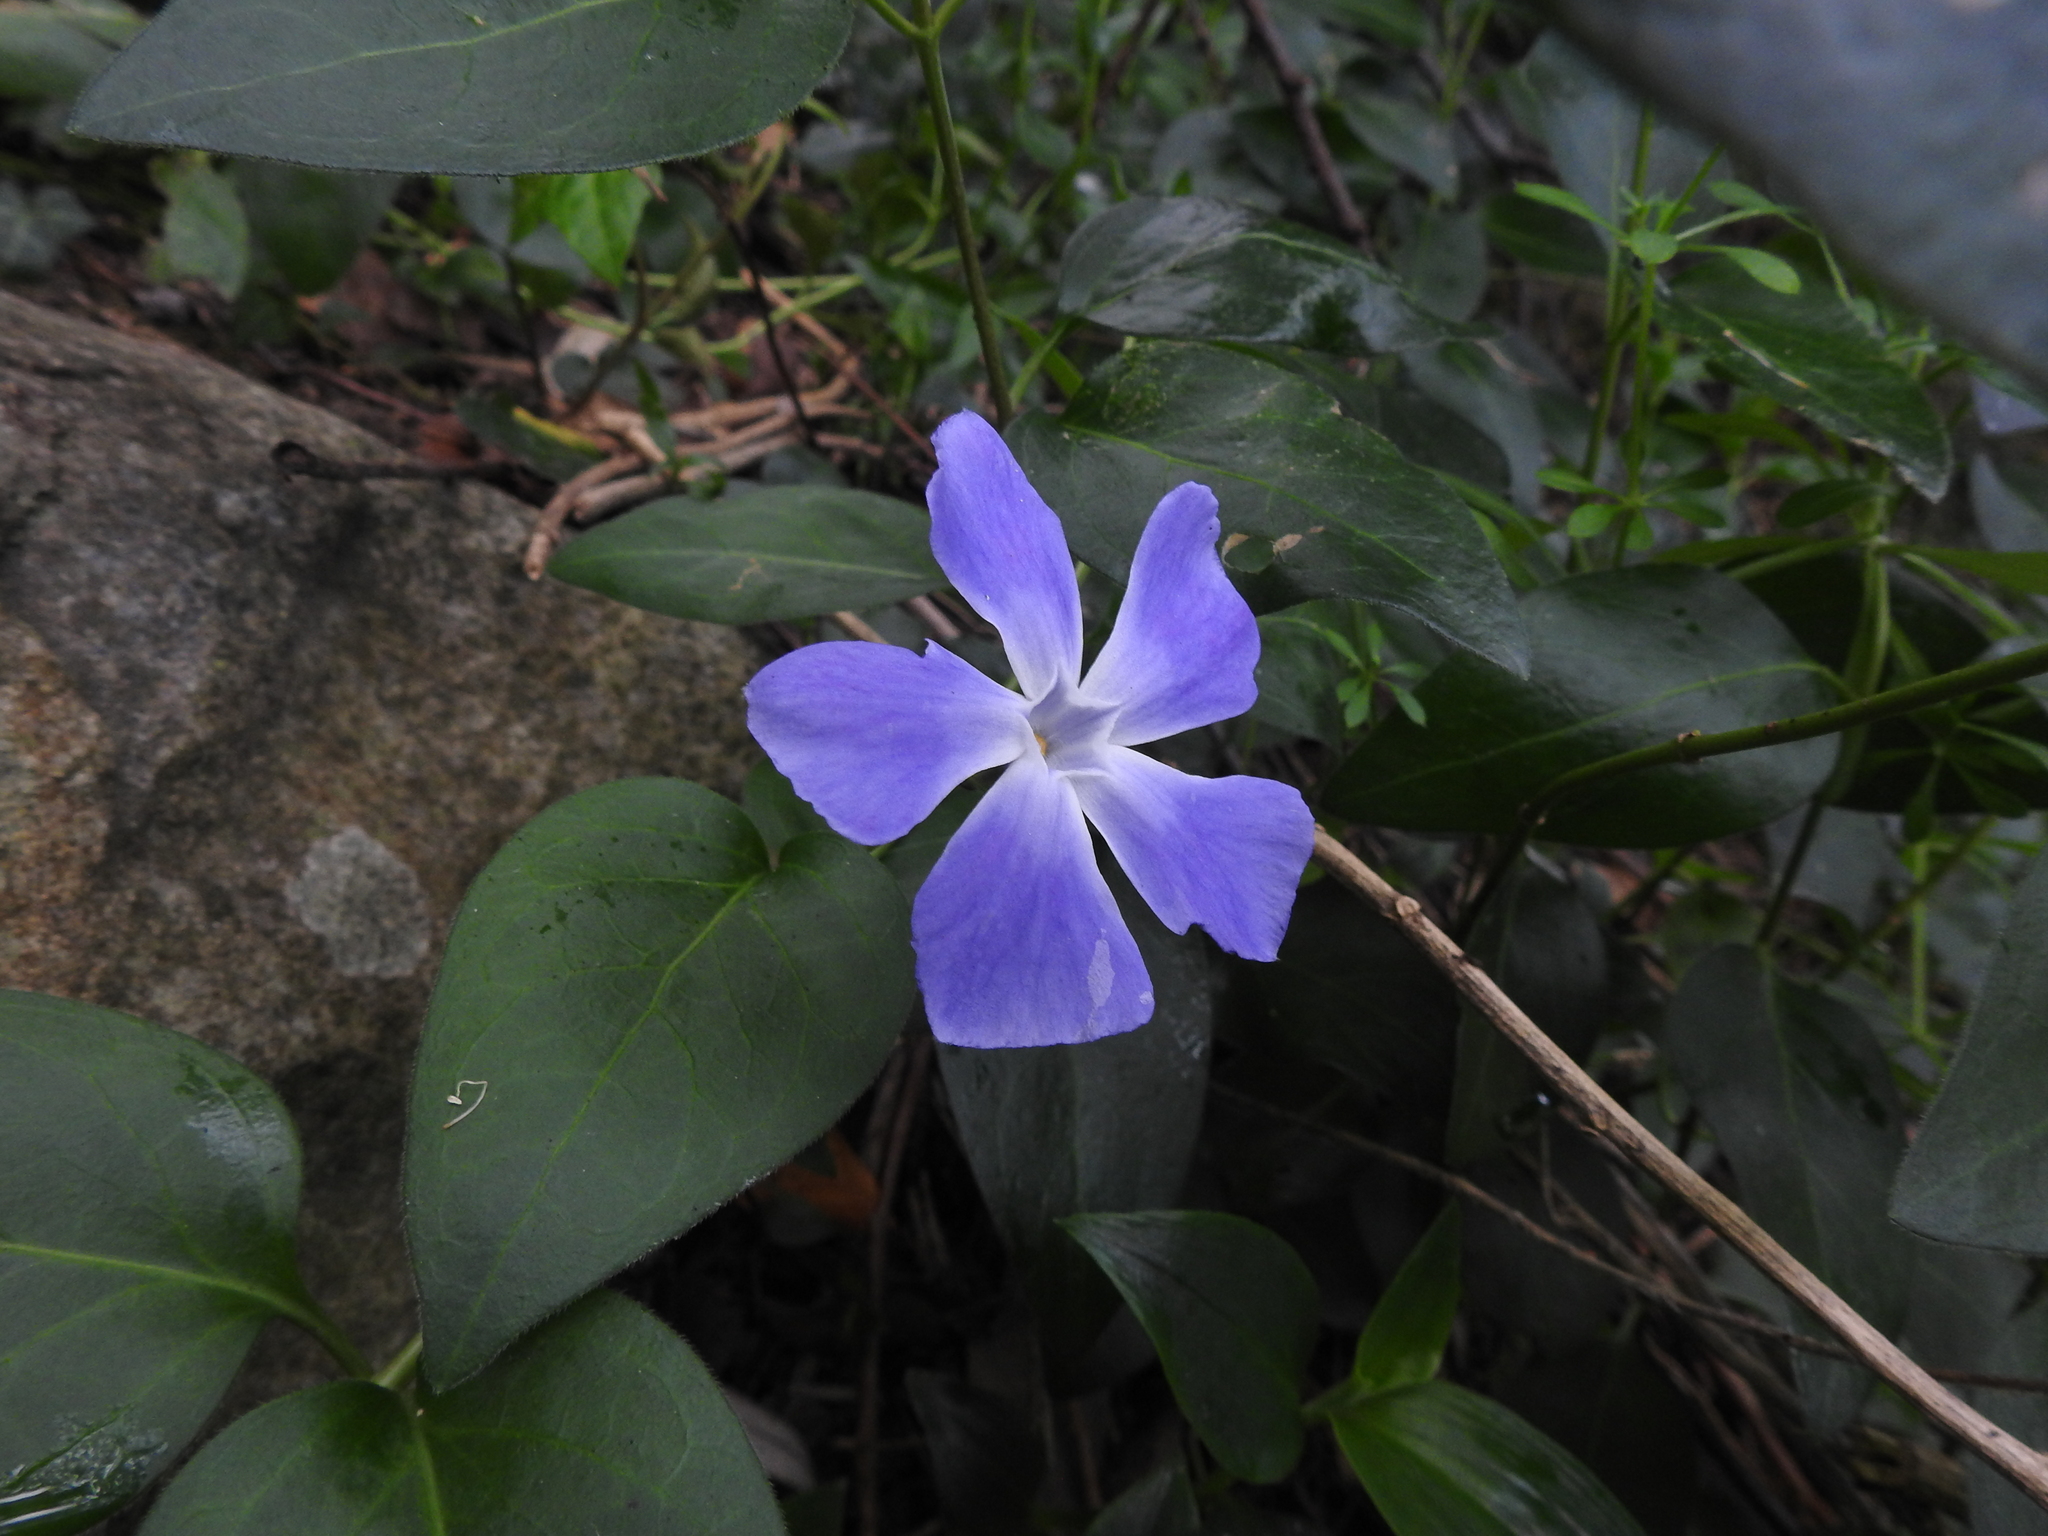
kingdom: Plantae
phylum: Tracheophyta
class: Magnoliopsida
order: Gentianales
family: Apocynaceae
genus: Vinca
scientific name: Vinca major
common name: Greater periwinkle
